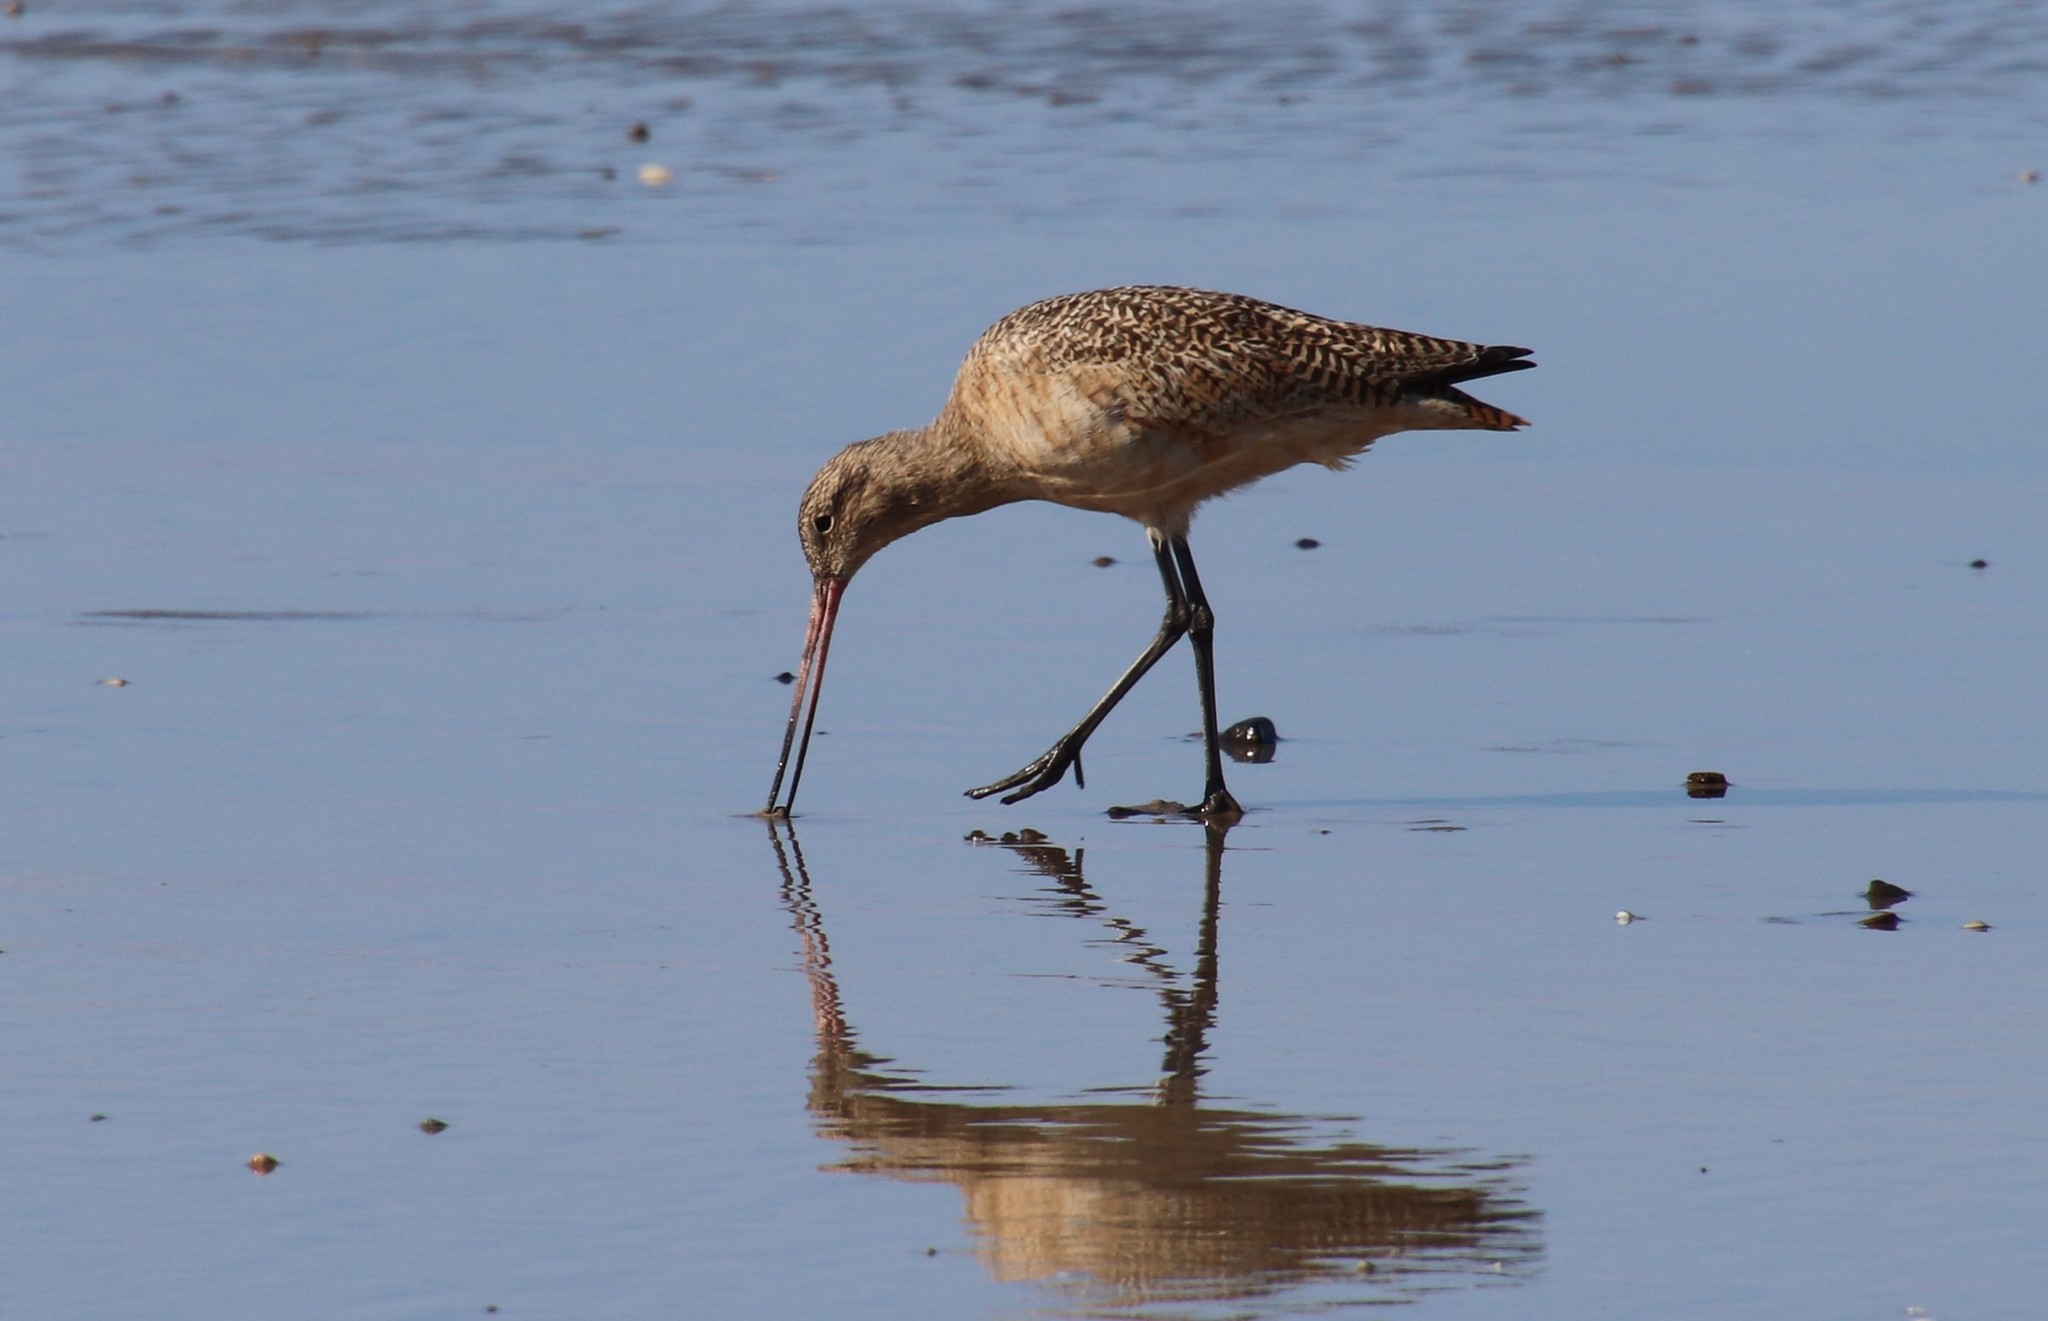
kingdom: Animalia
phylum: Chordata
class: Aves
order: Charadriiformes
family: Scolopacidae
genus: Limosa
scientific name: Limosa fedoa
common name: Marbled godwit
